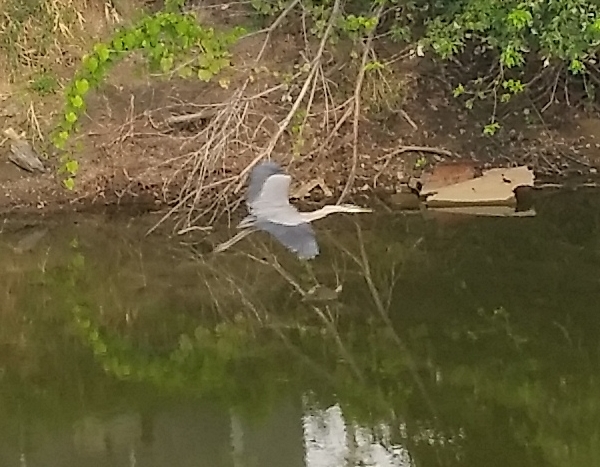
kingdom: Animalia
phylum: Chordata
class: Aves
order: Pelecaniformes
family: Ardeidae
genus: Ardea
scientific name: Ardea herodias
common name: Great blue heron
